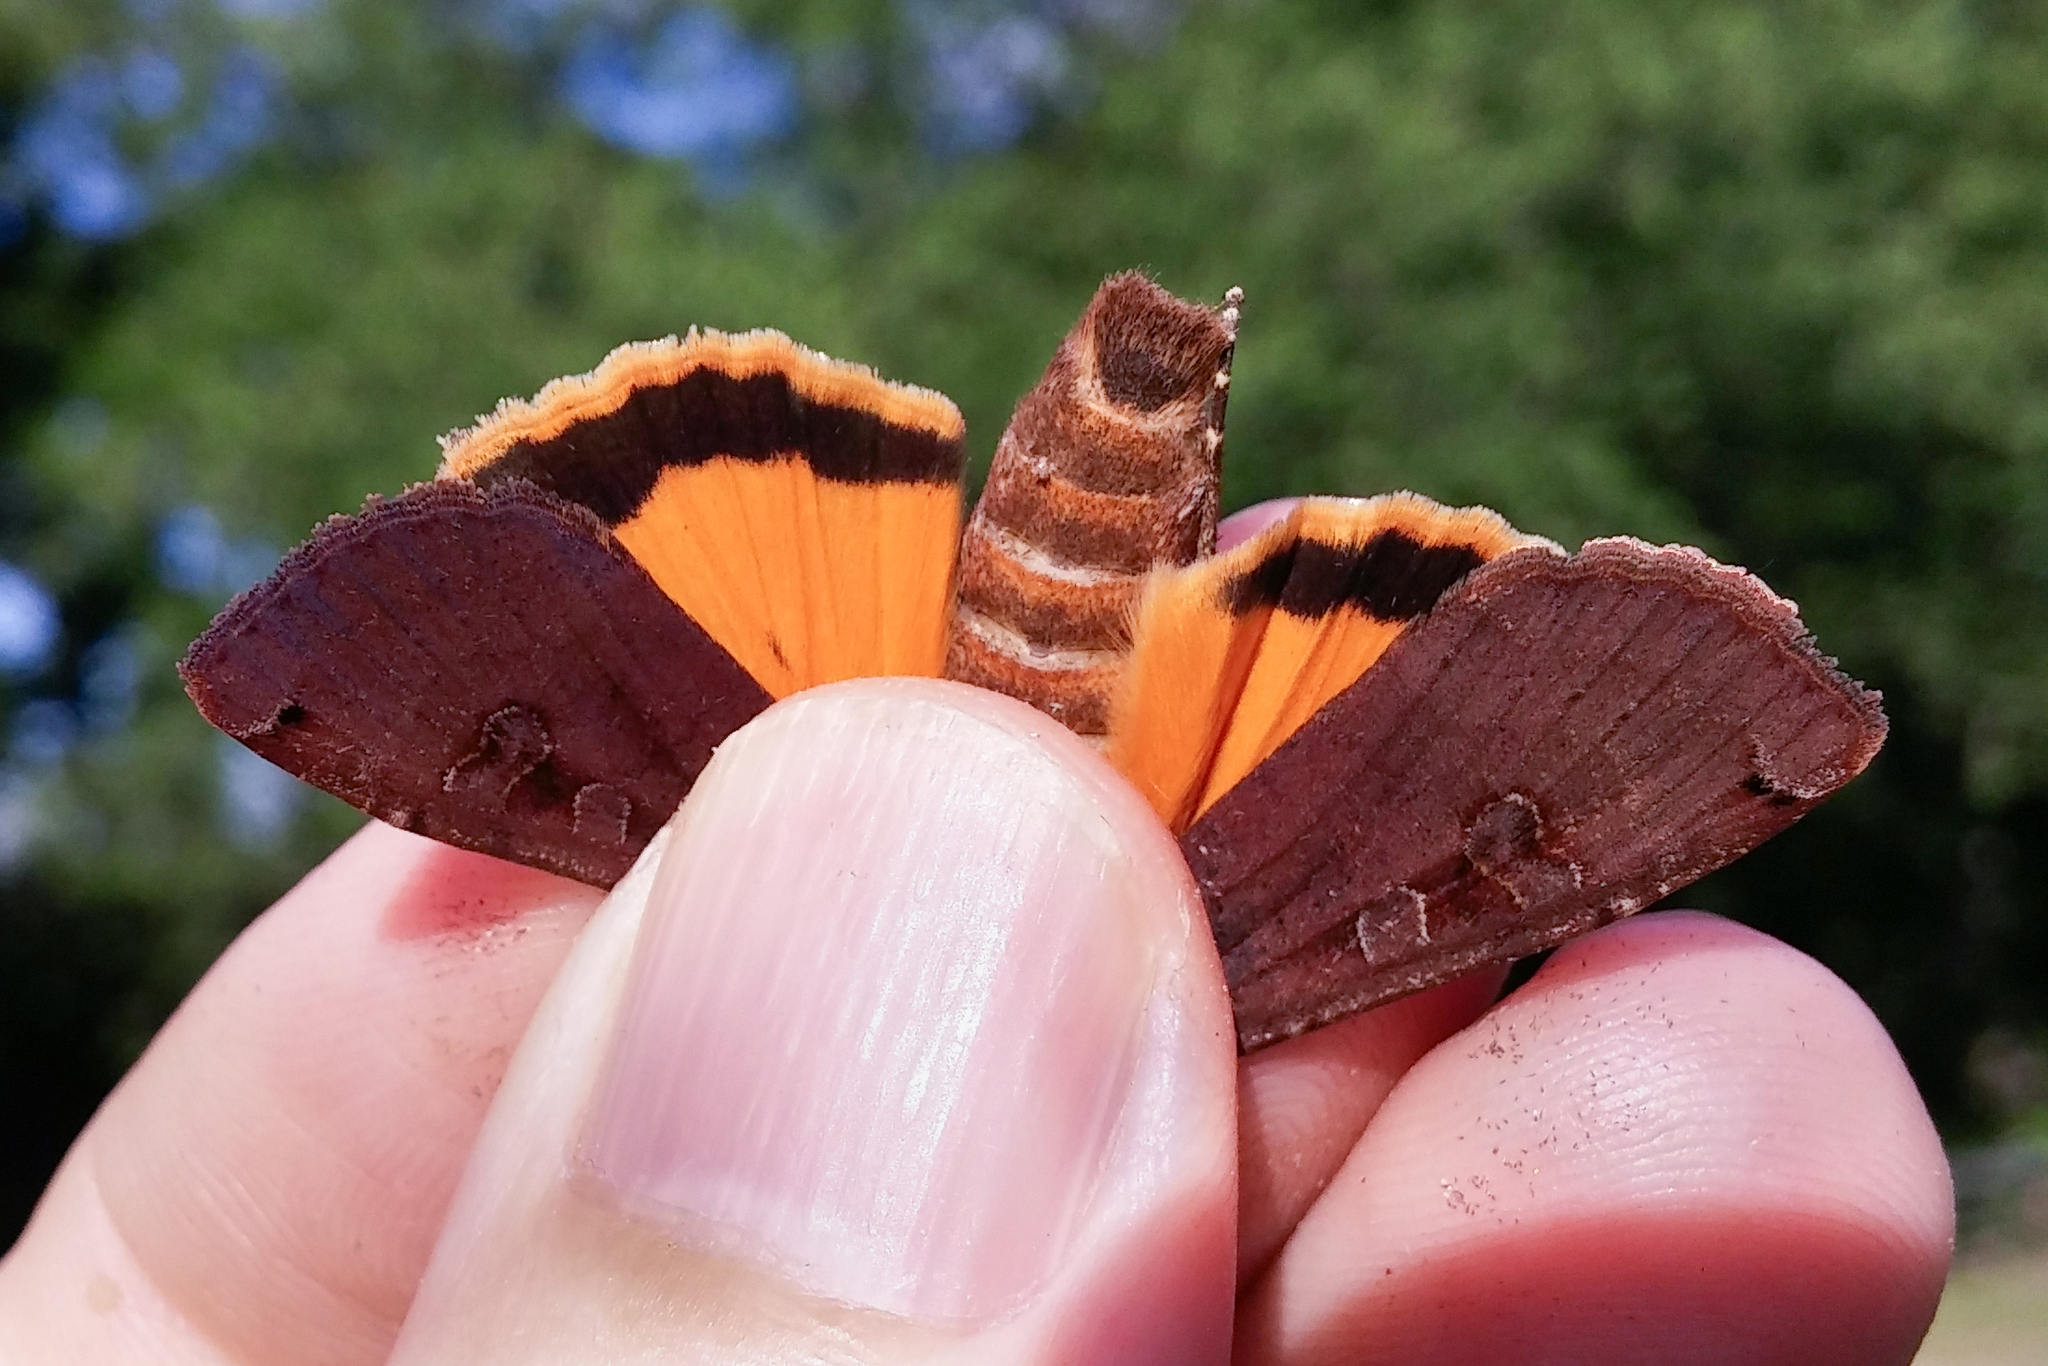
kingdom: Animalia
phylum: Arthropoda
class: Insecta
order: Lepidoptera
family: Noctuidae
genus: Noctua
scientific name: Noctua pronuba
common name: Large yellow underwing
